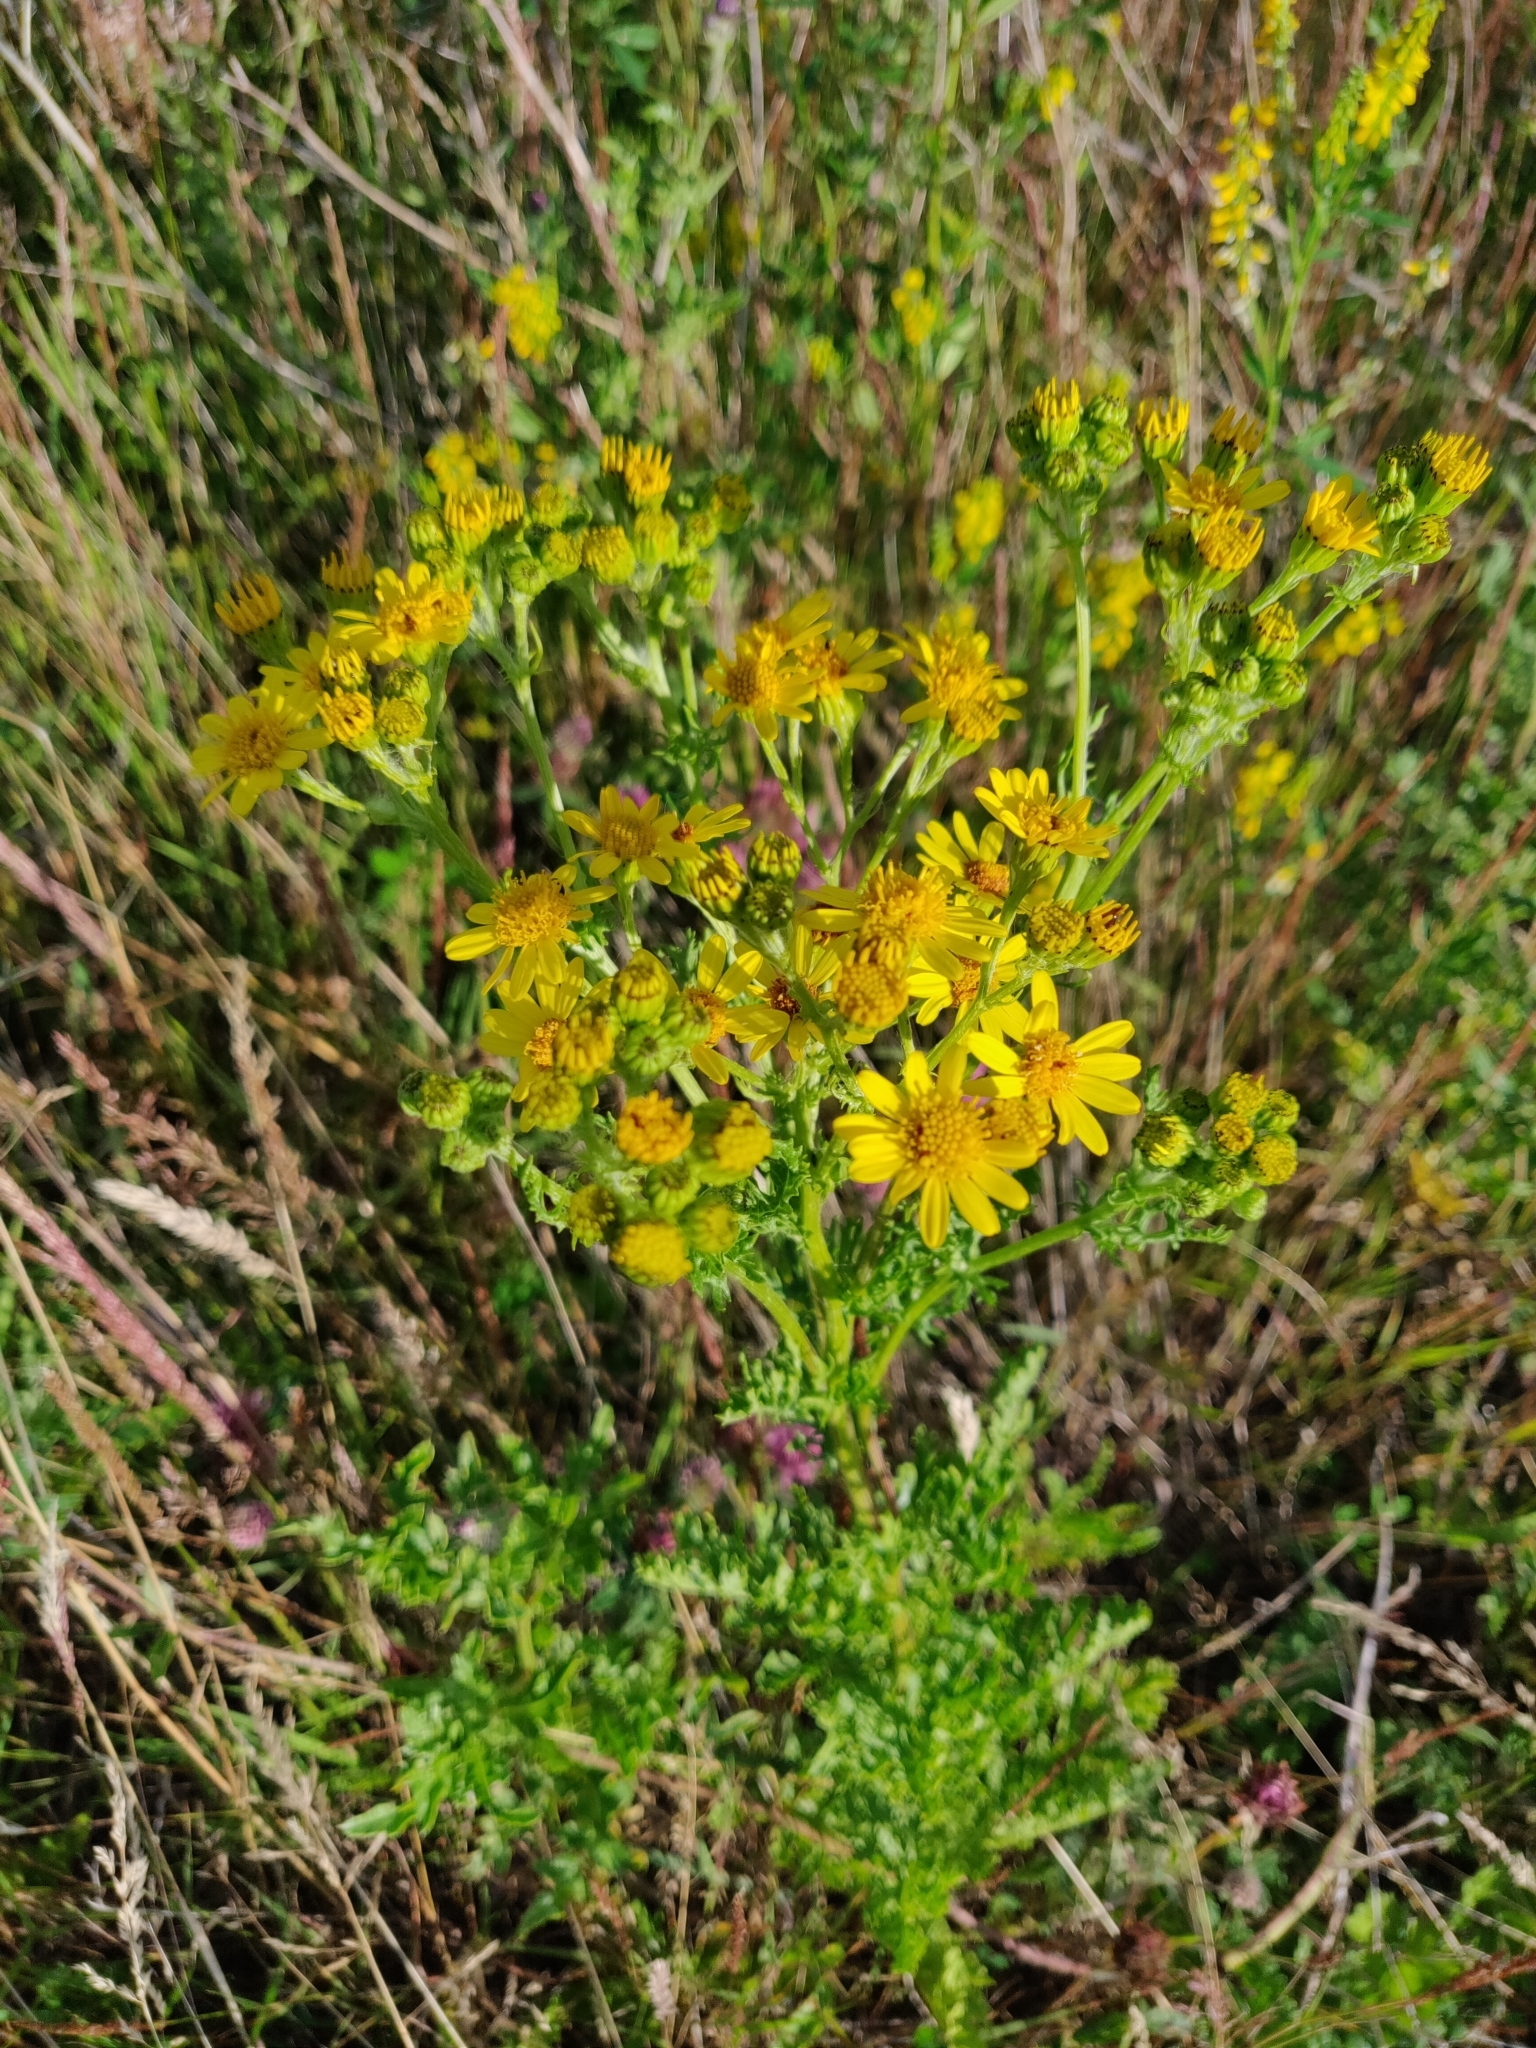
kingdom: Plantae
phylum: Tracheophyta
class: Magnoliopsida
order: Asterales
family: Asteraceae
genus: Jacobaea
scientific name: Jacobaea vulgaris
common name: Stinking willie
